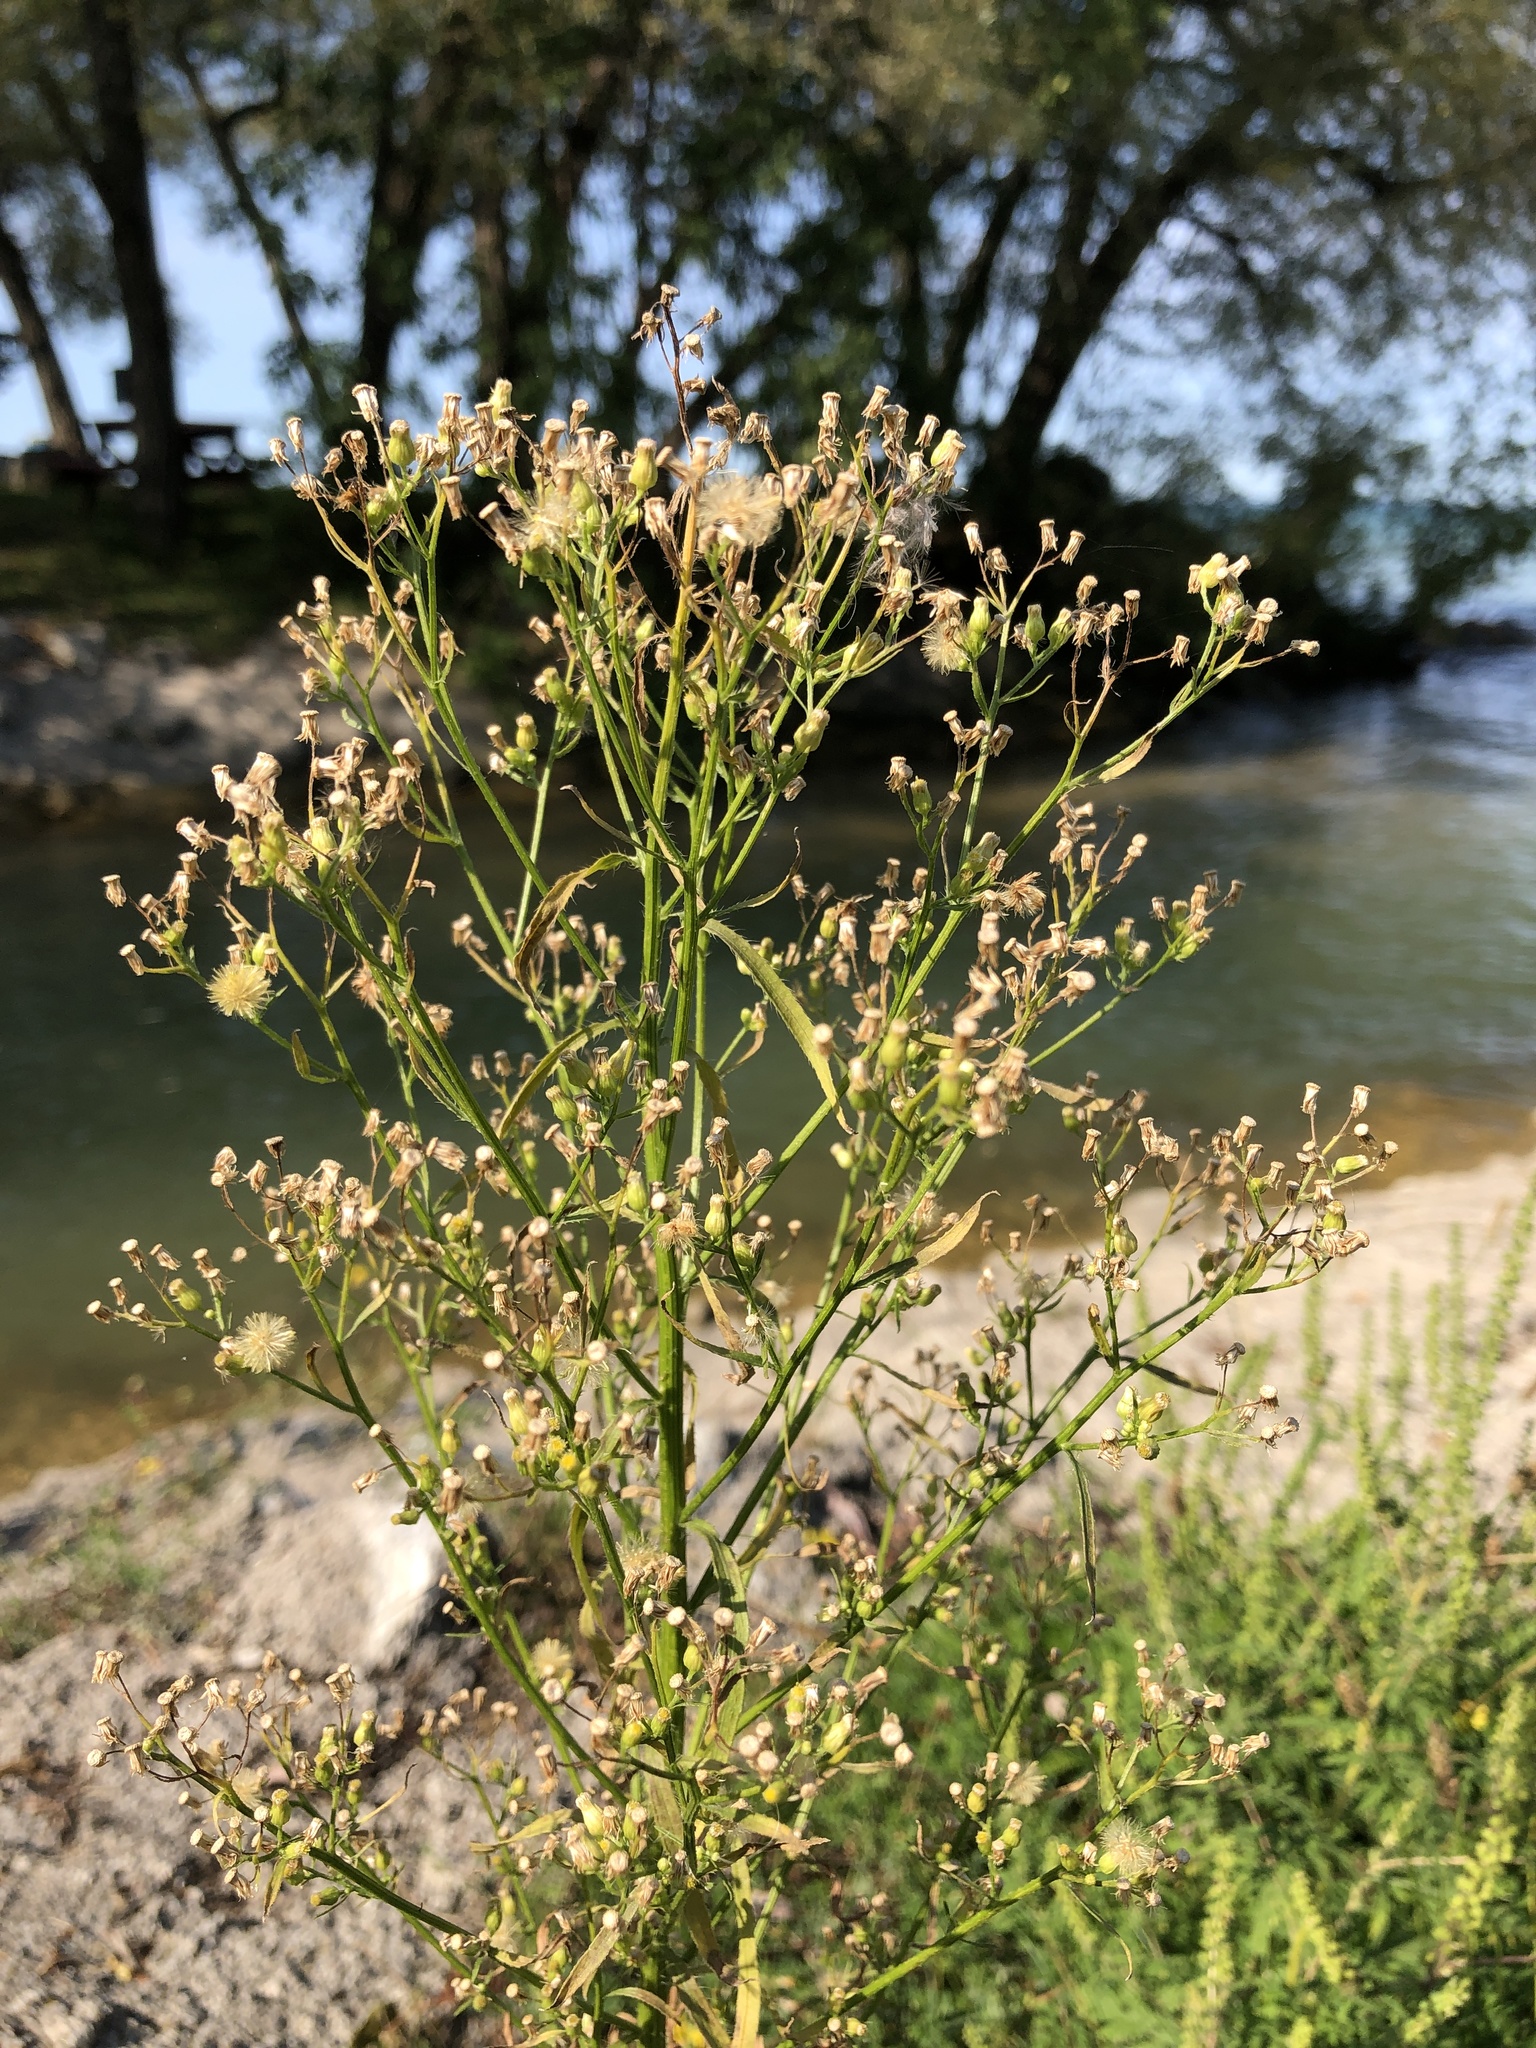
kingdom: Plantae
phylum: Tracheophyta
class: Magnoliopsida
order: Asterales
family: Asteraceae
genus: Erigeron
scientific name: Erigeron canadensis
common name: Canadian fleabane
